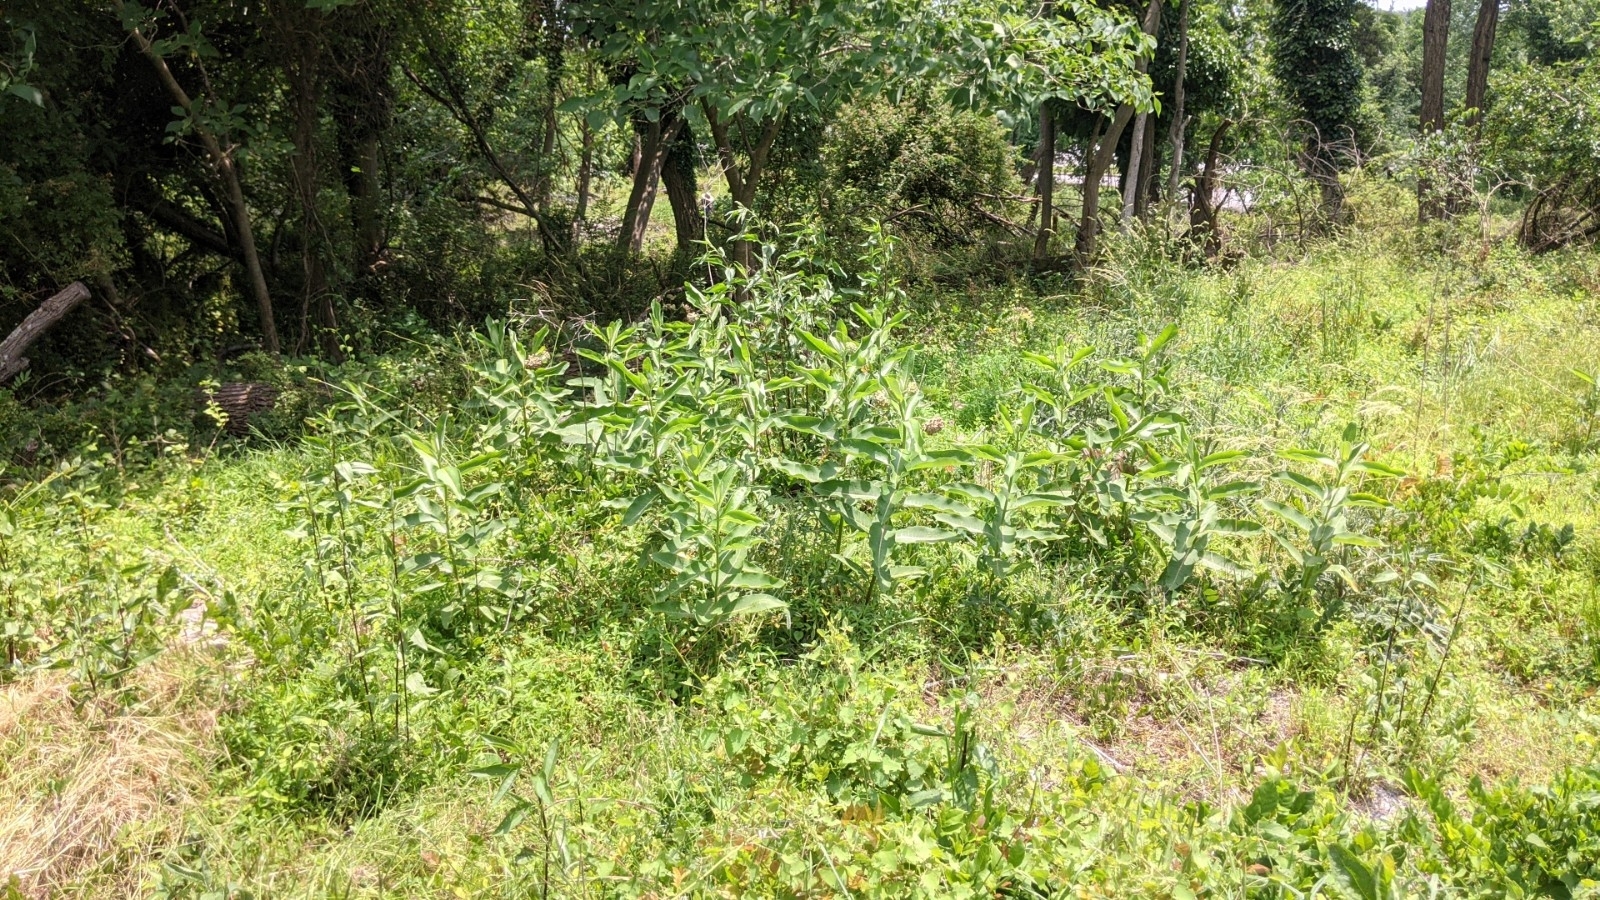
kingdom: Plantae
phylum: Tracheophyta
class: Magnoliopsida
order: Gentianales
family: Apocynaceae
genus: Asclepias
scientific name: Asclepias syriaca
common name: Common milkweed
